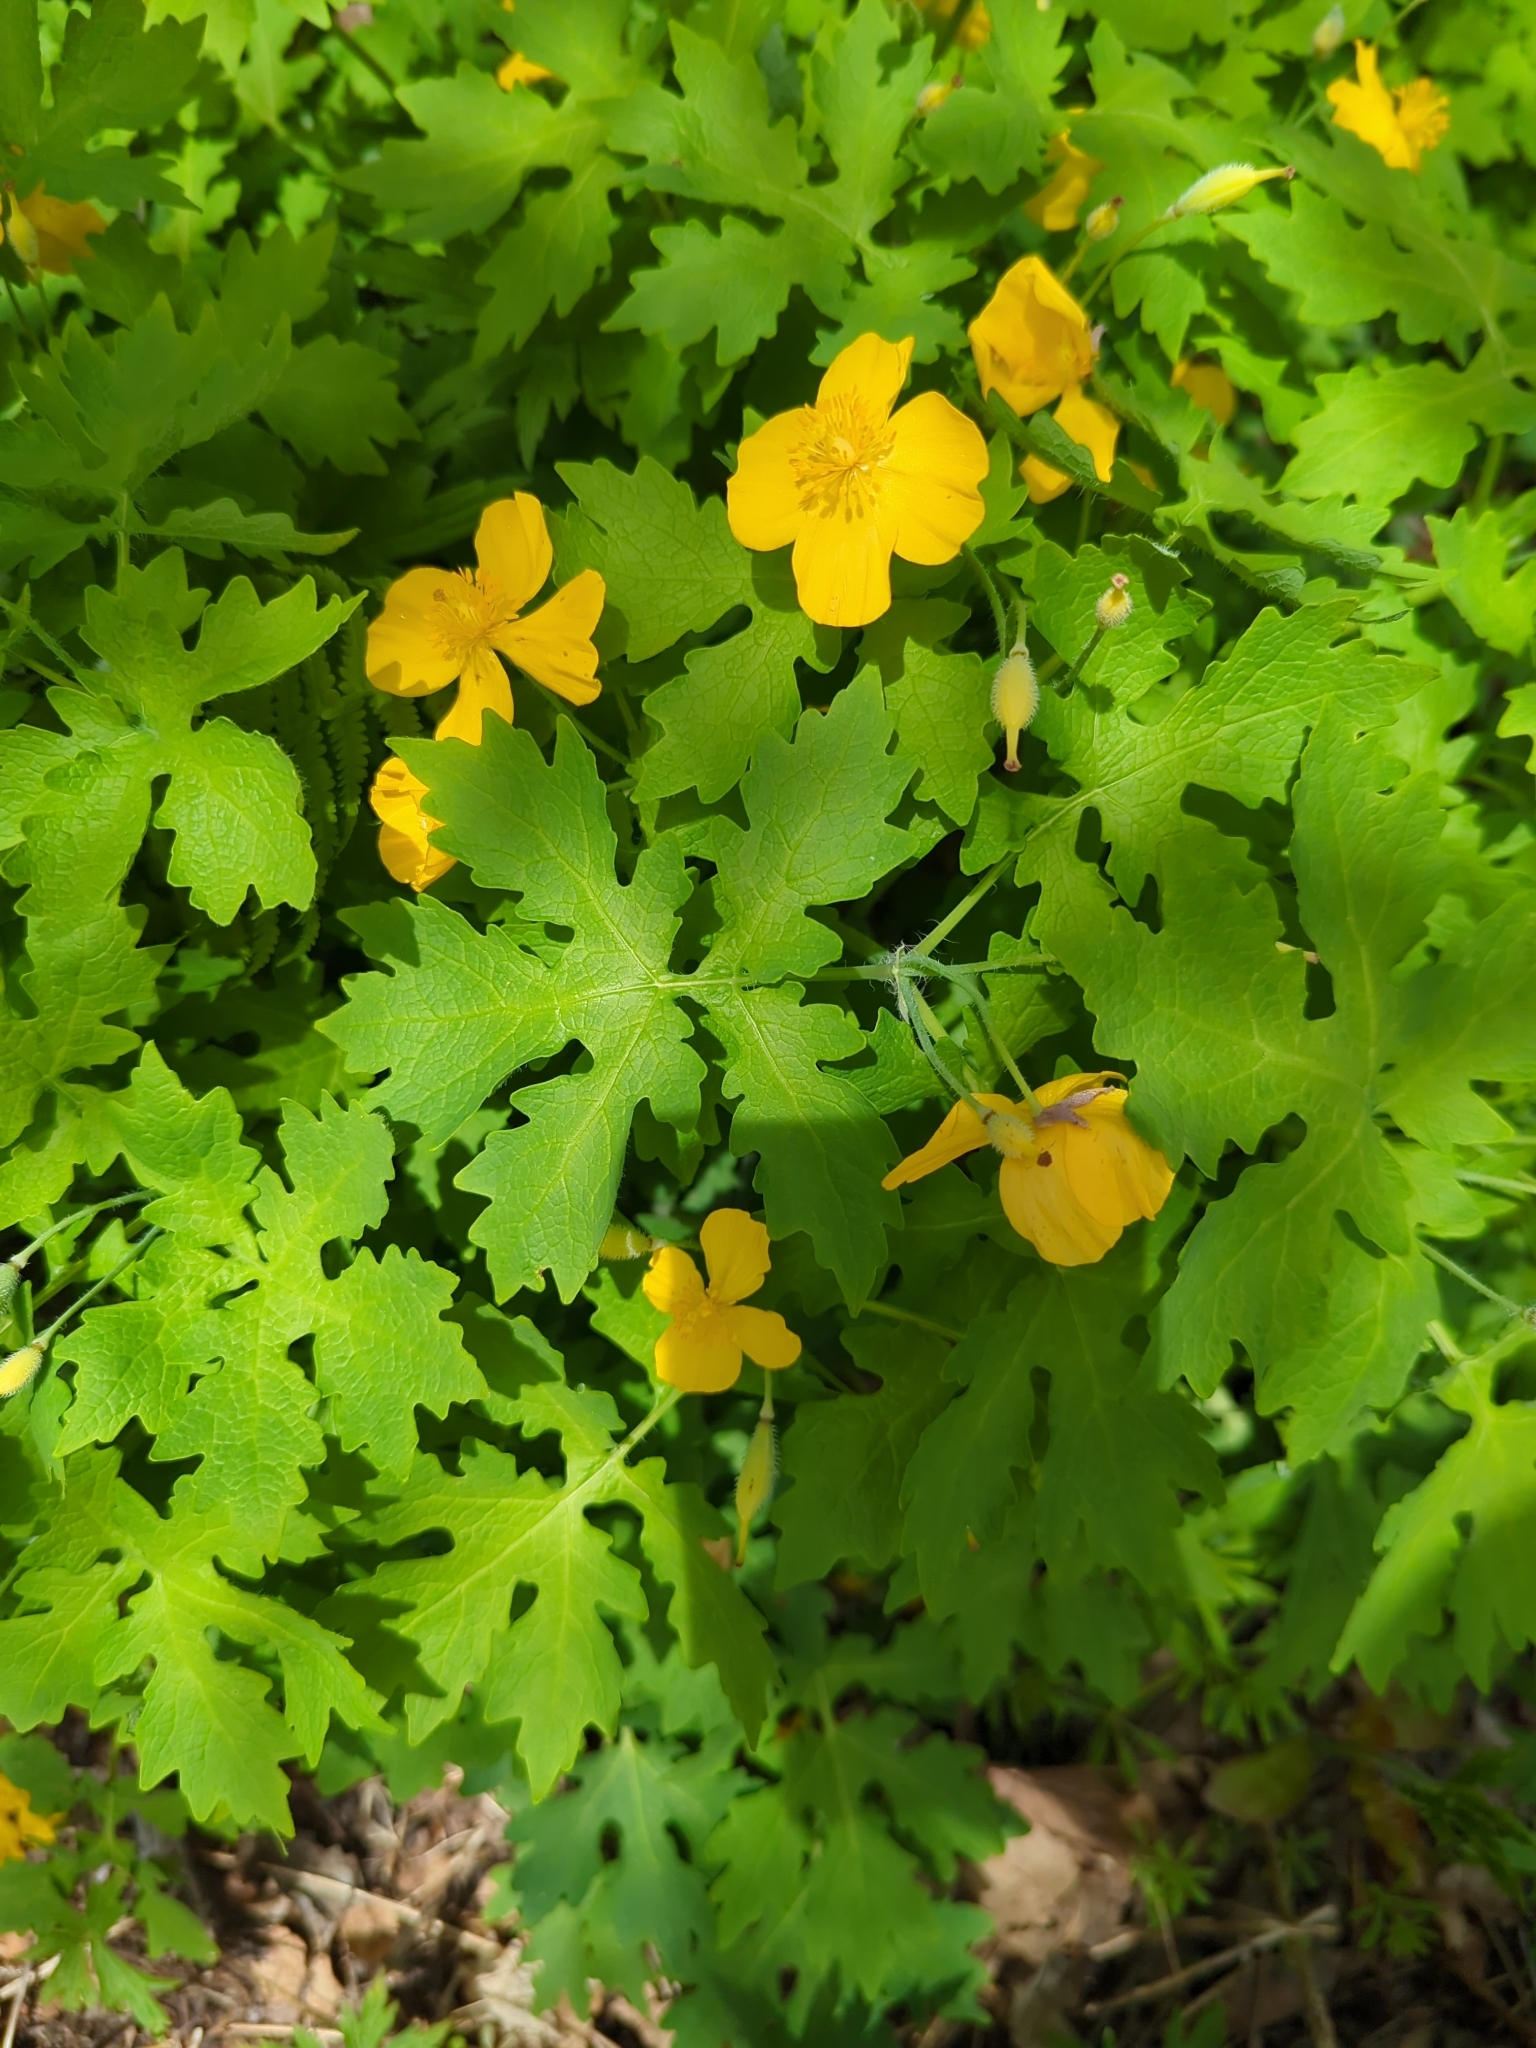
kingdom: Plantae
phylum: Tracheophyta
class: Magnoliopsida
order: Ranunculales
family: Papaveraceae
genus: Stylophorum
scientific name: Stylophorum diphyllum
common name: Celandine poppy
